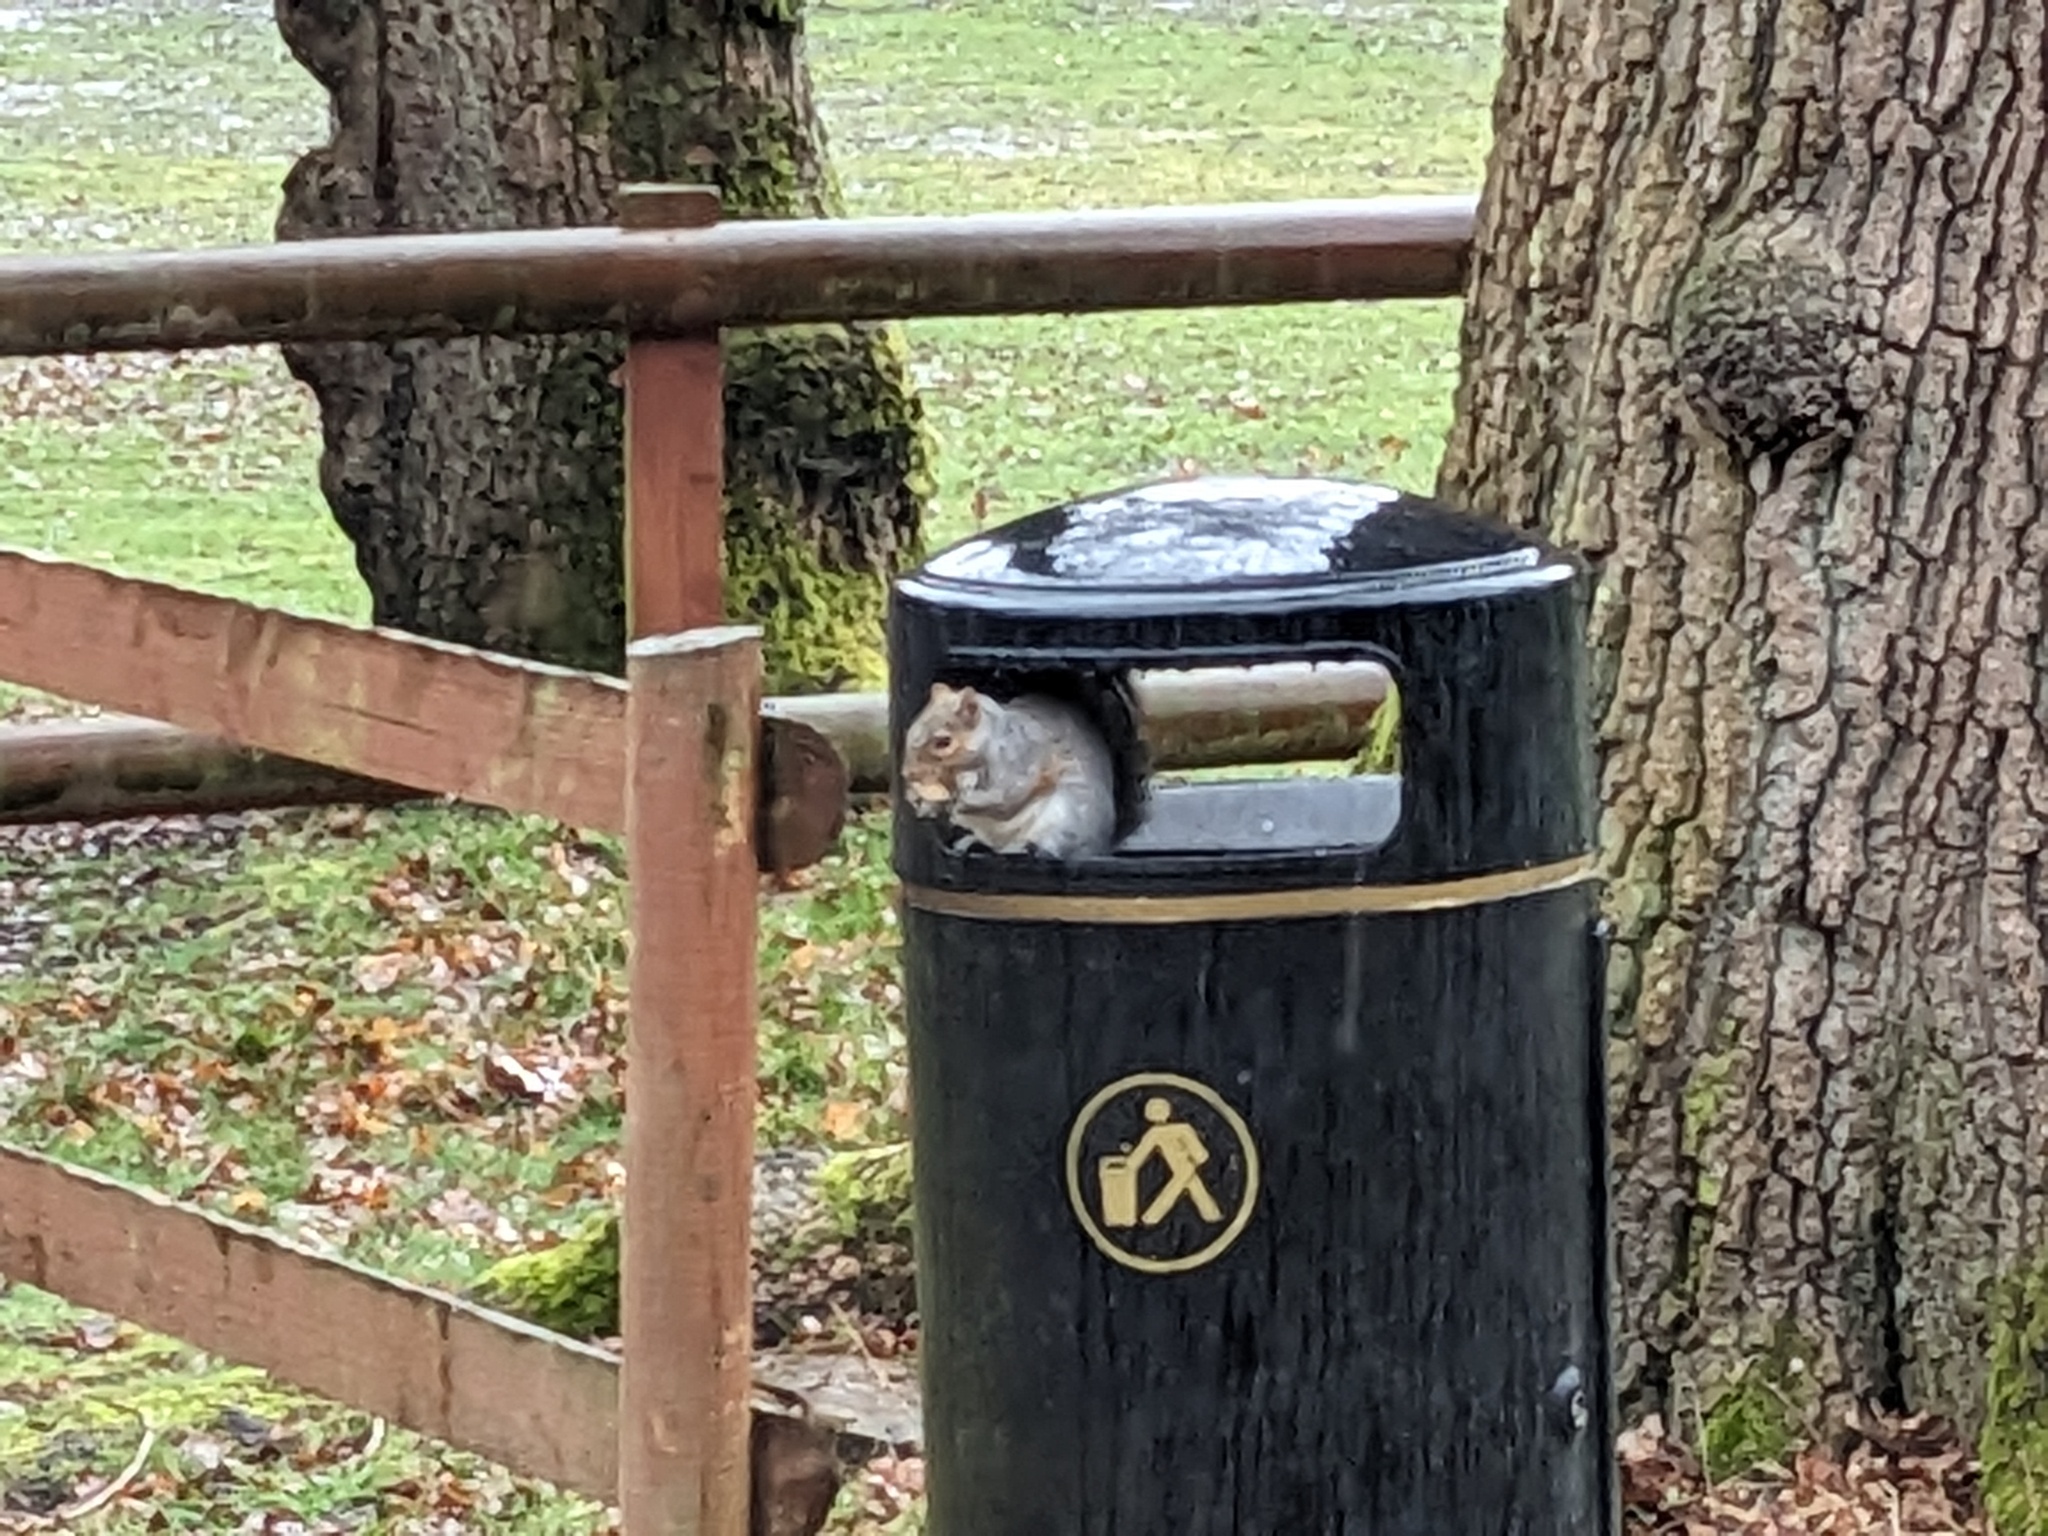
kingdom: Animalia
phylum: Chordata
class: Mammalia
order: Rodentia
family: Sciuridae
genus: Sciurus
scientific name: Sciurus carolinensis
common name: Eastern gray squirrel
